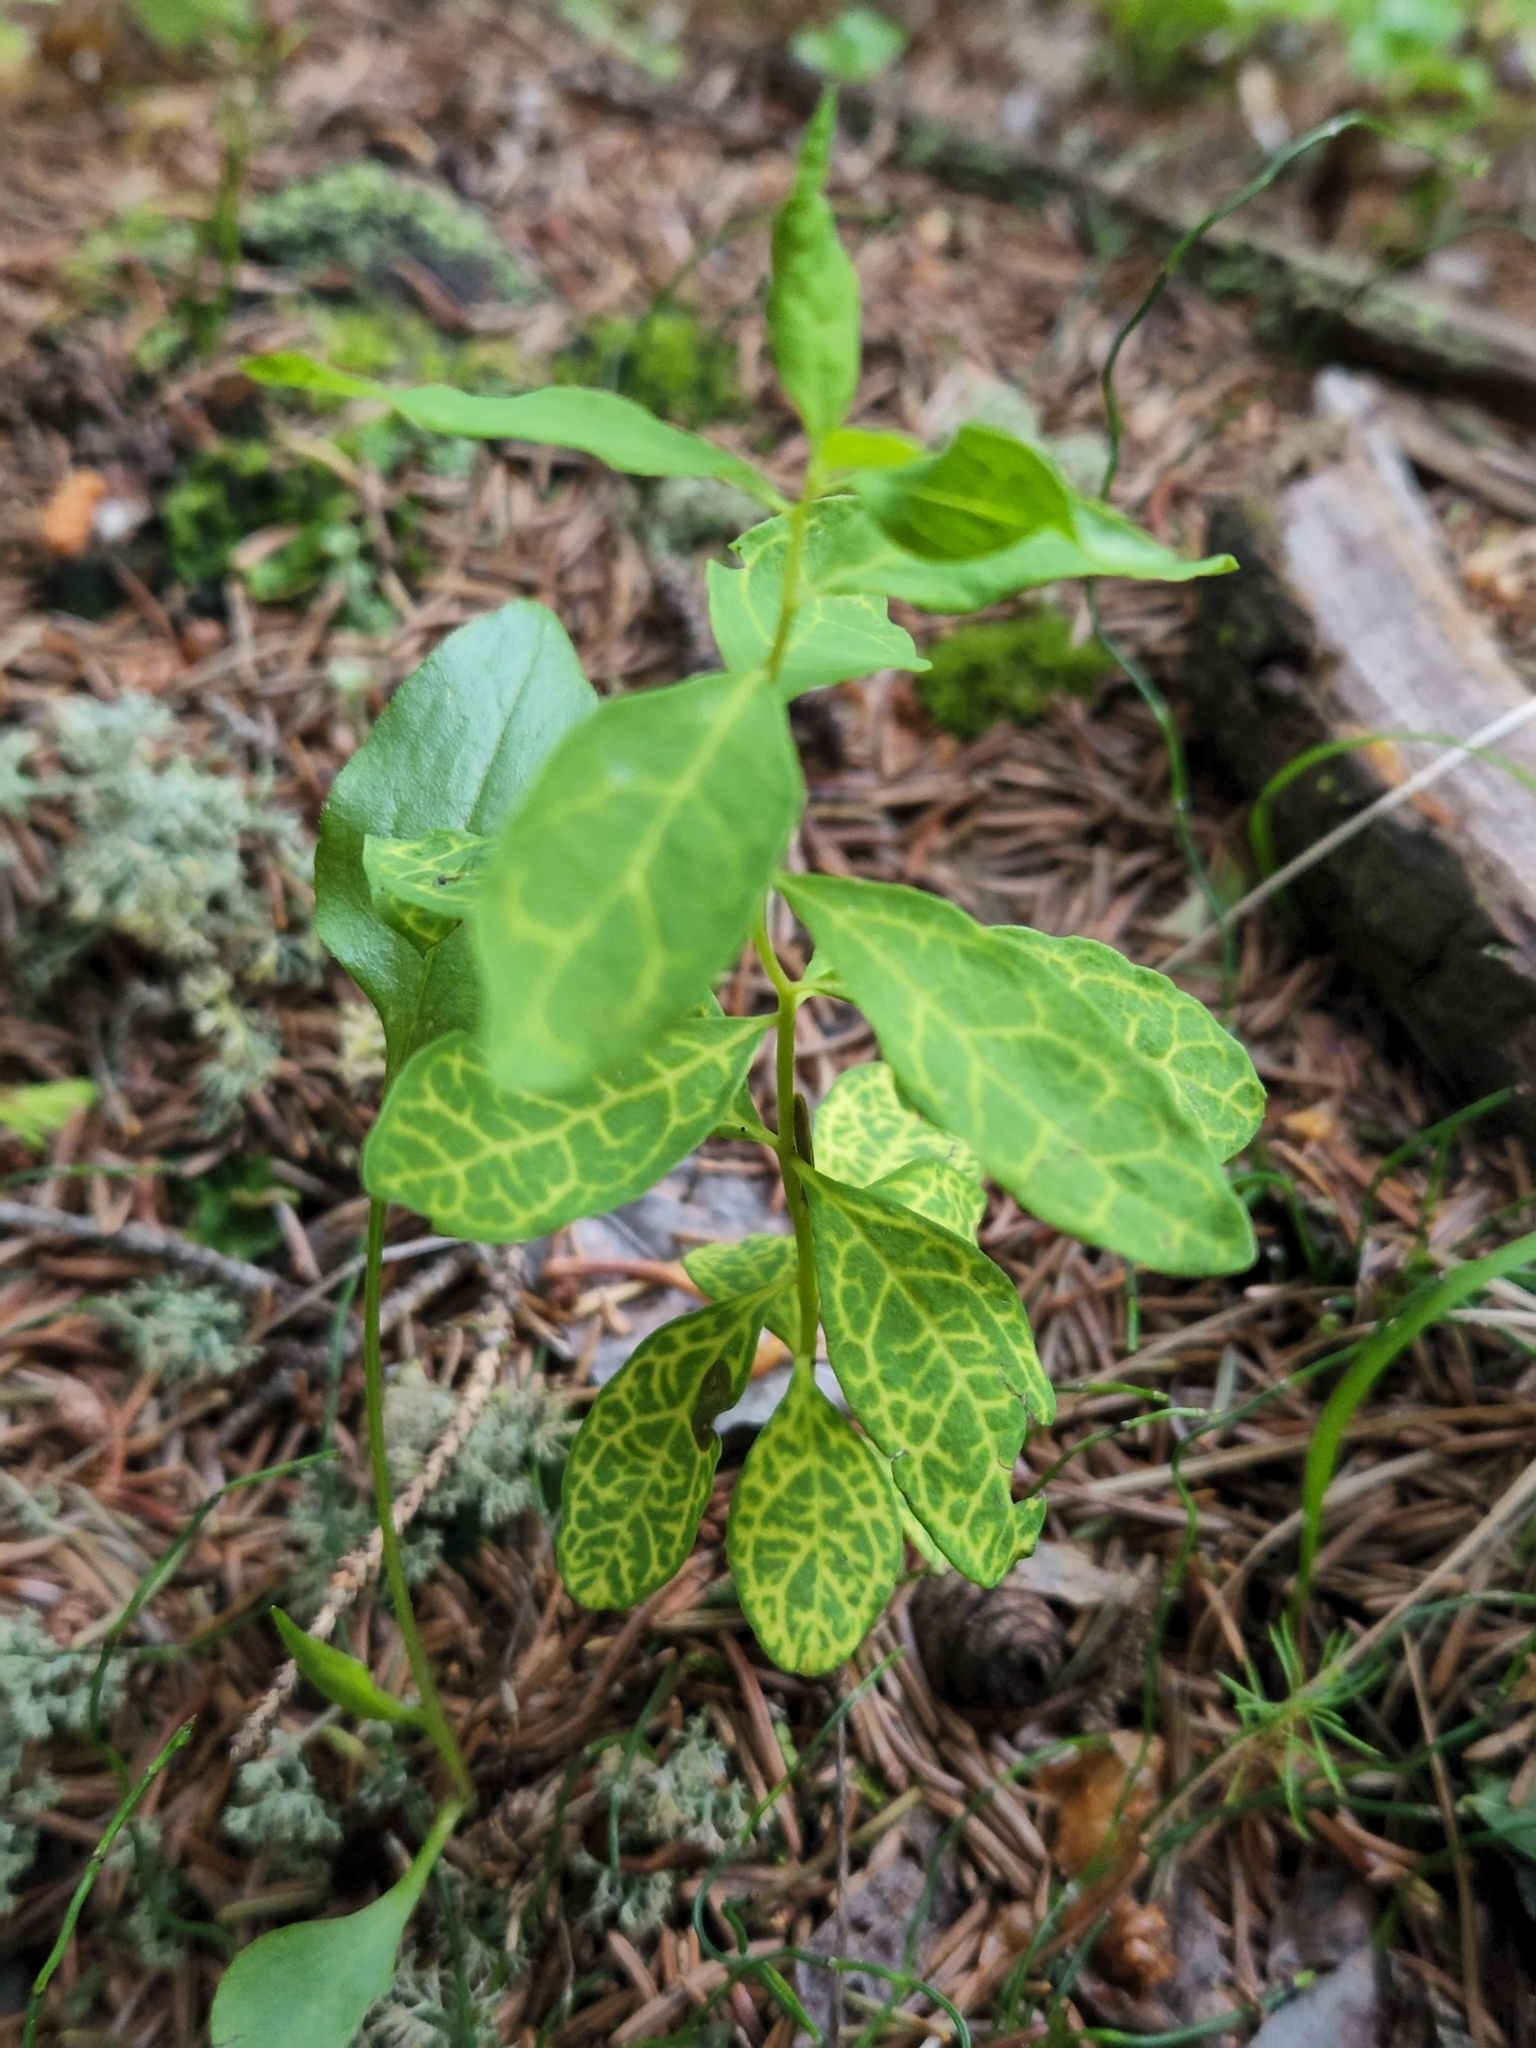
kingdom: Plantae
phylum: Tracheophyta
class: Magnoliopsida
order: Santalales
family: Comandraceae
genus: Geocaulon
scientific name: Geocaulon lividum
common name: Earthberry
